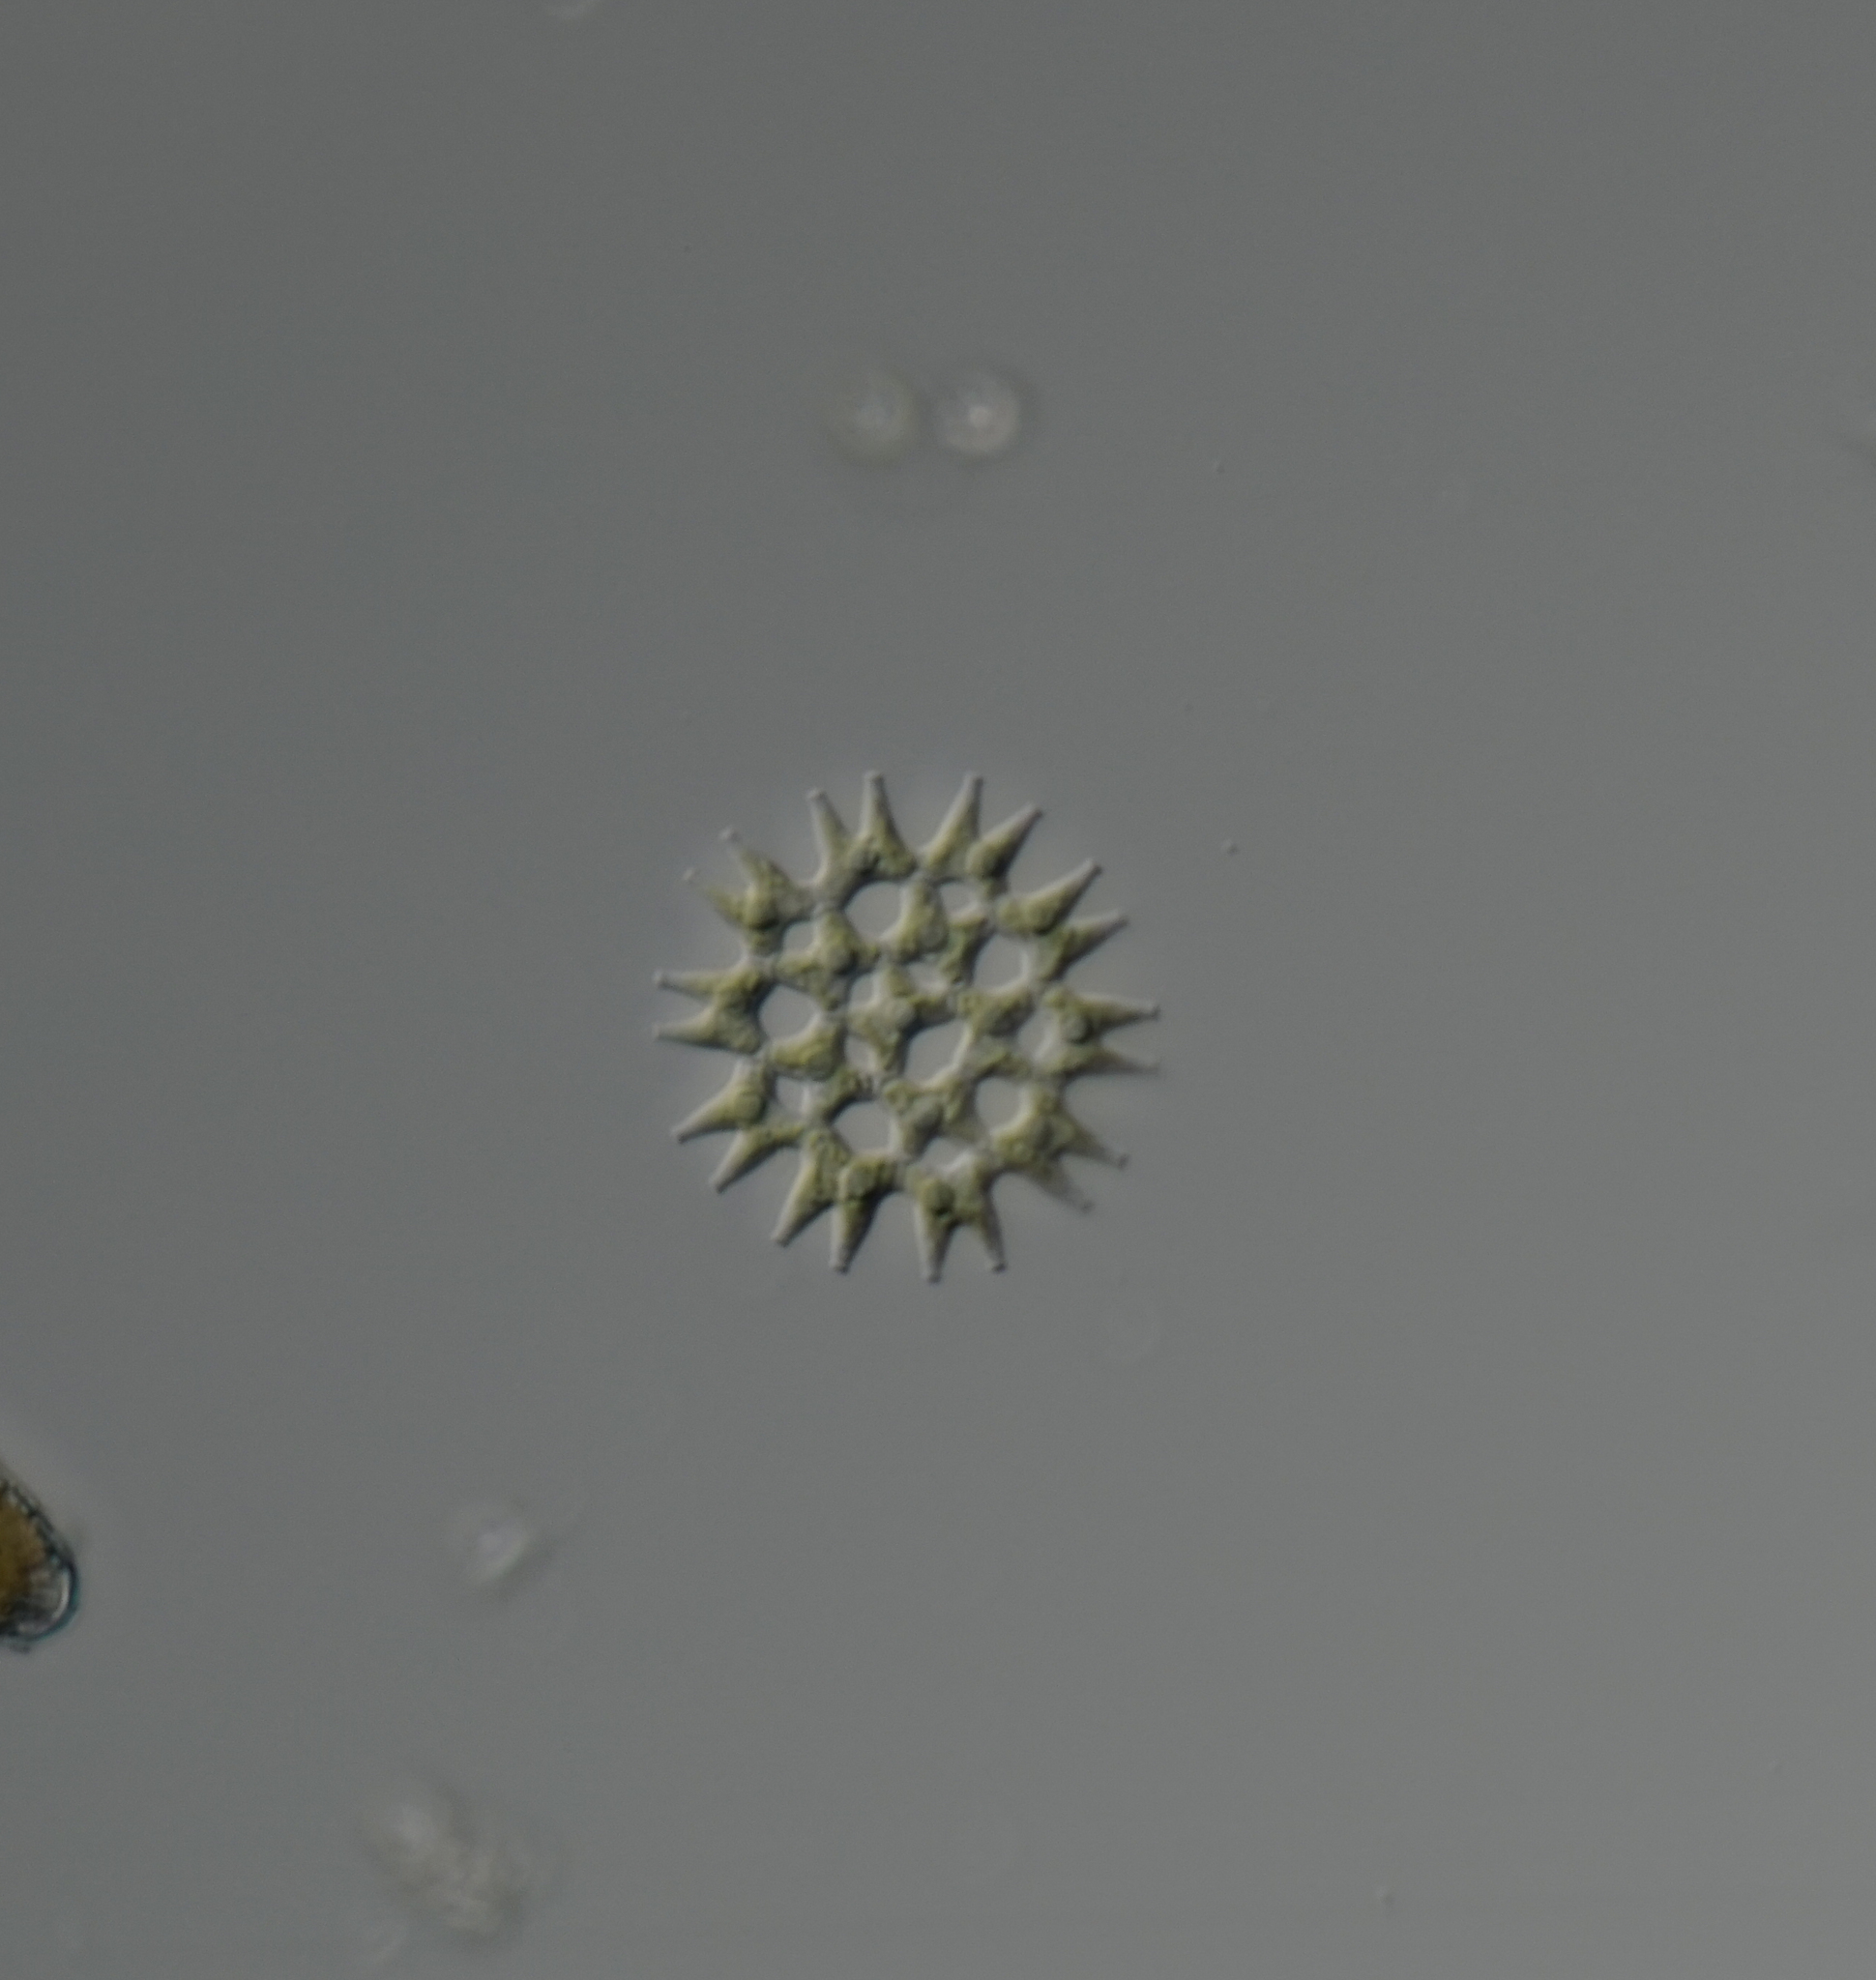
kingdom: Plantae
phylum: Chlorophyta
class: Chlorophyceae
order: Sphaeropleales
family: Hydrodictyaceae
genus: Pediastrum
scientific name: Pediastrum duplex
